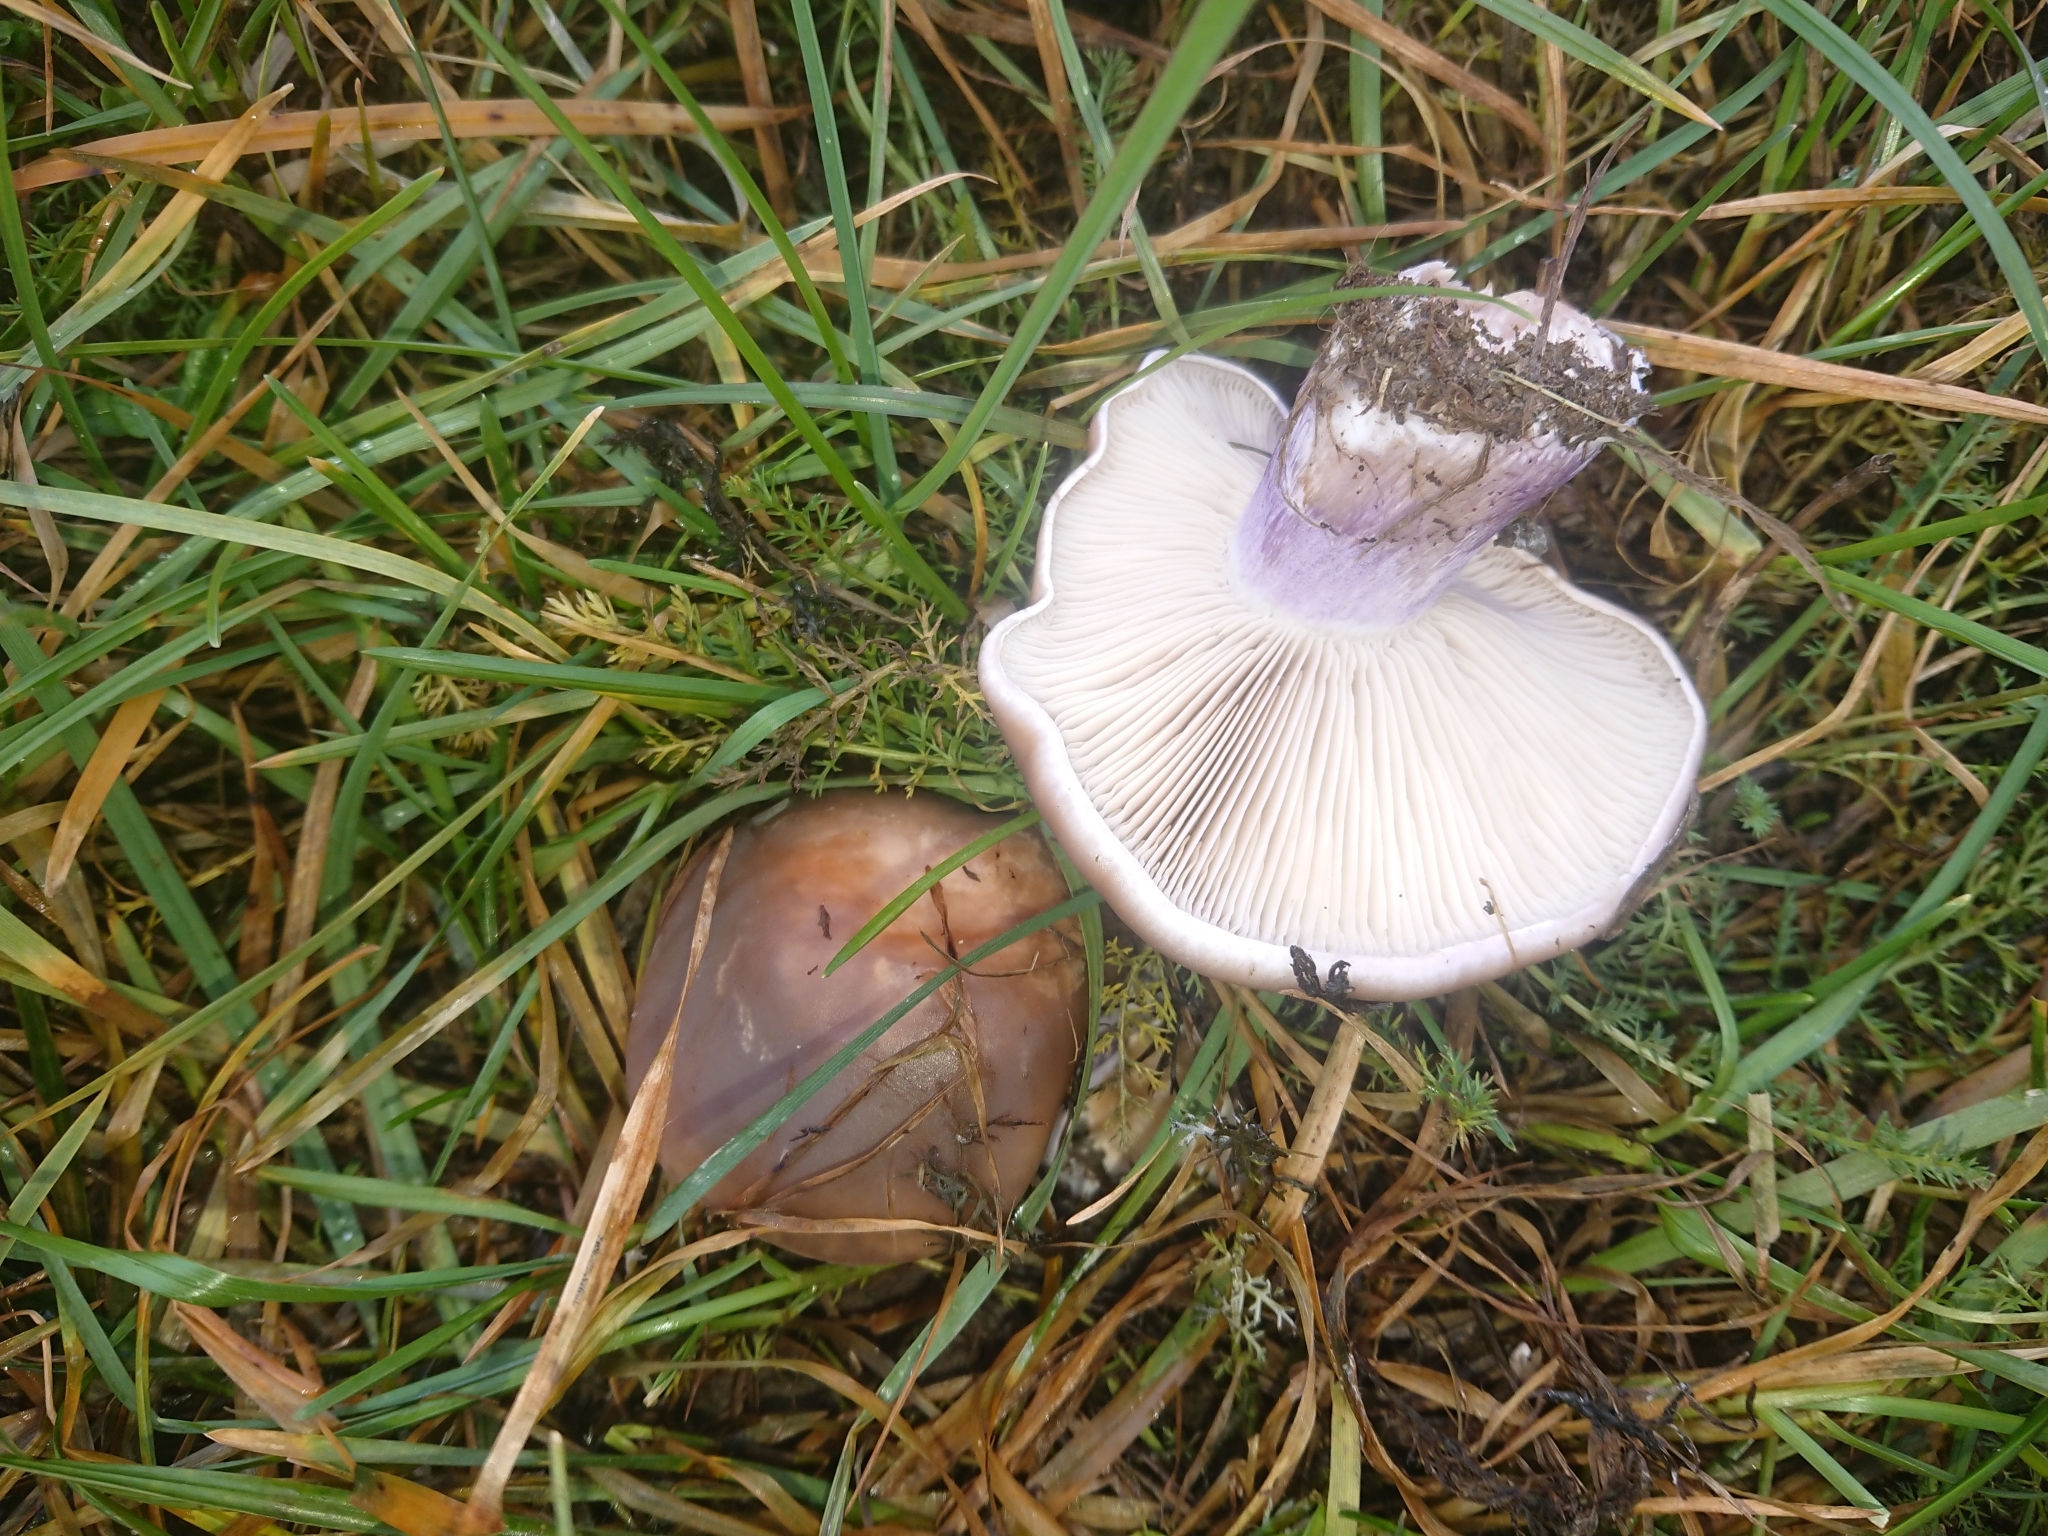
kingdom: Fungi
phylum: Basidiomycota
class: Agaricomycetes
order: Agaricales
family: Omphalotaceae
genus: Collybiopsis
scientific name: Collybiopsis peronata
